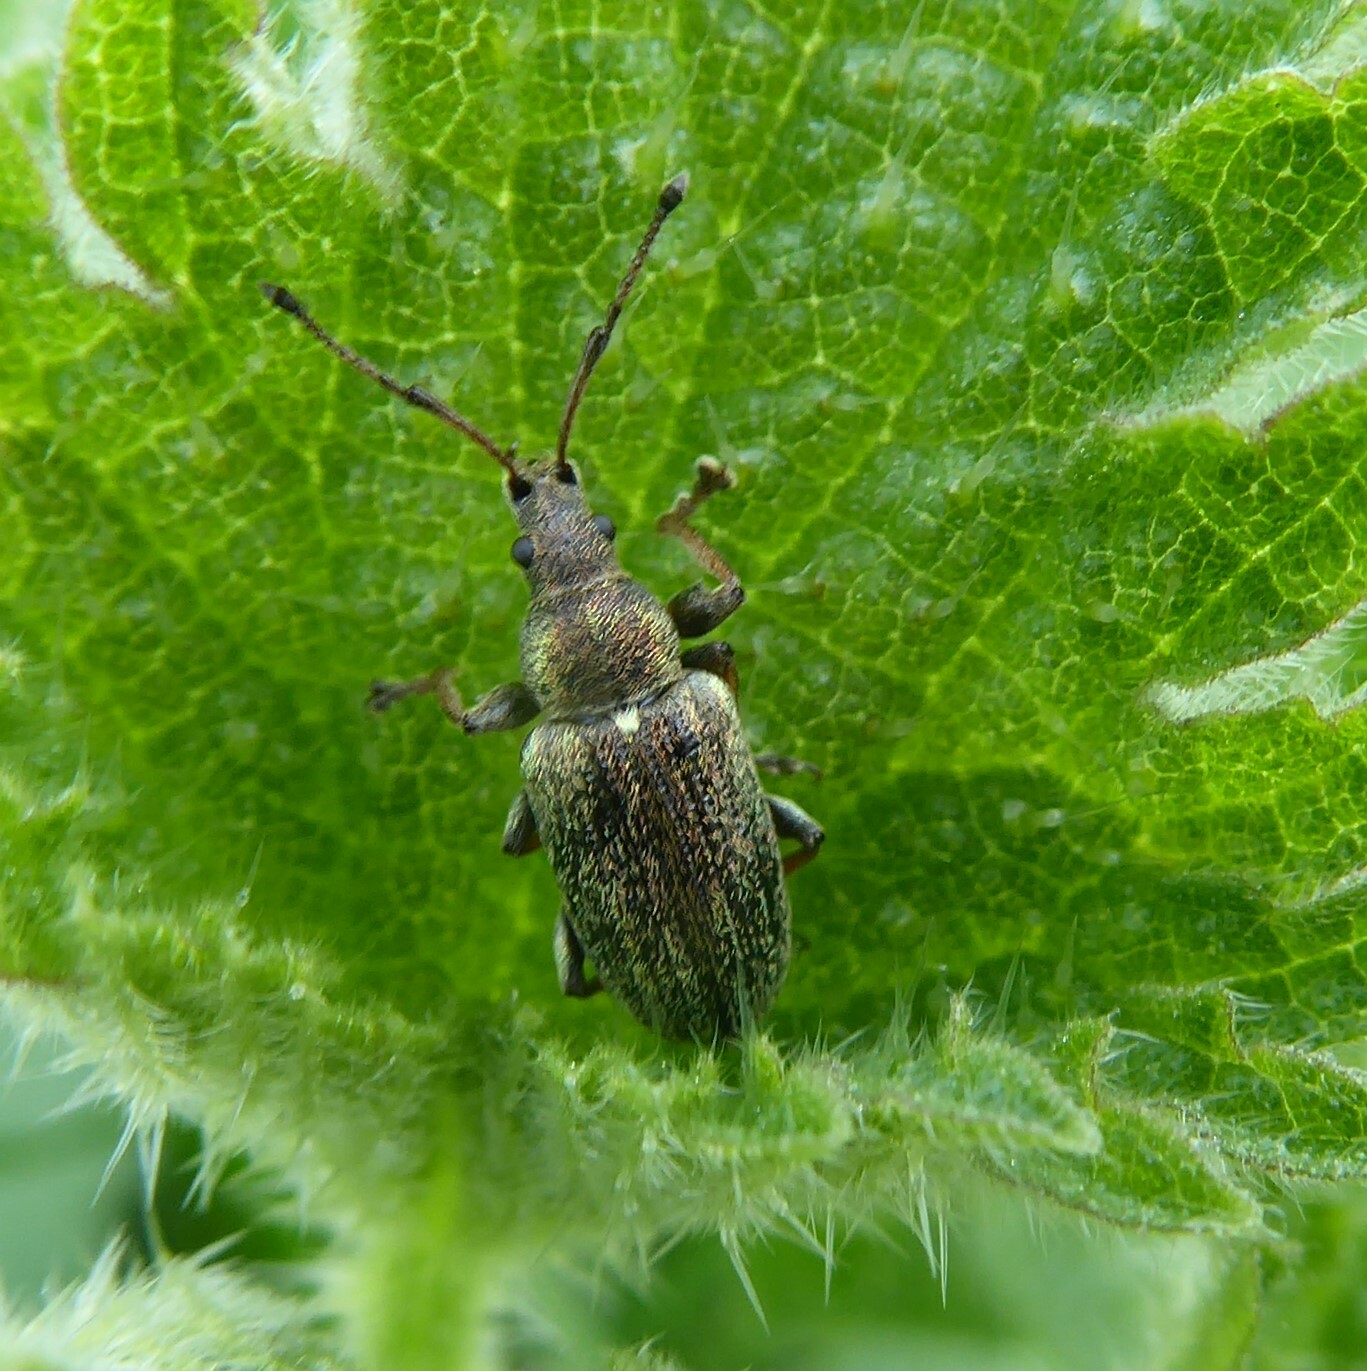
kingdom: Animalia
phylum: Arthropoda
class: Insecta
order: Coleoptera
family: Curculionidae
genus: Phyllobius
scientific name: Phyllobius pyri
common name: Common leaf weevil
